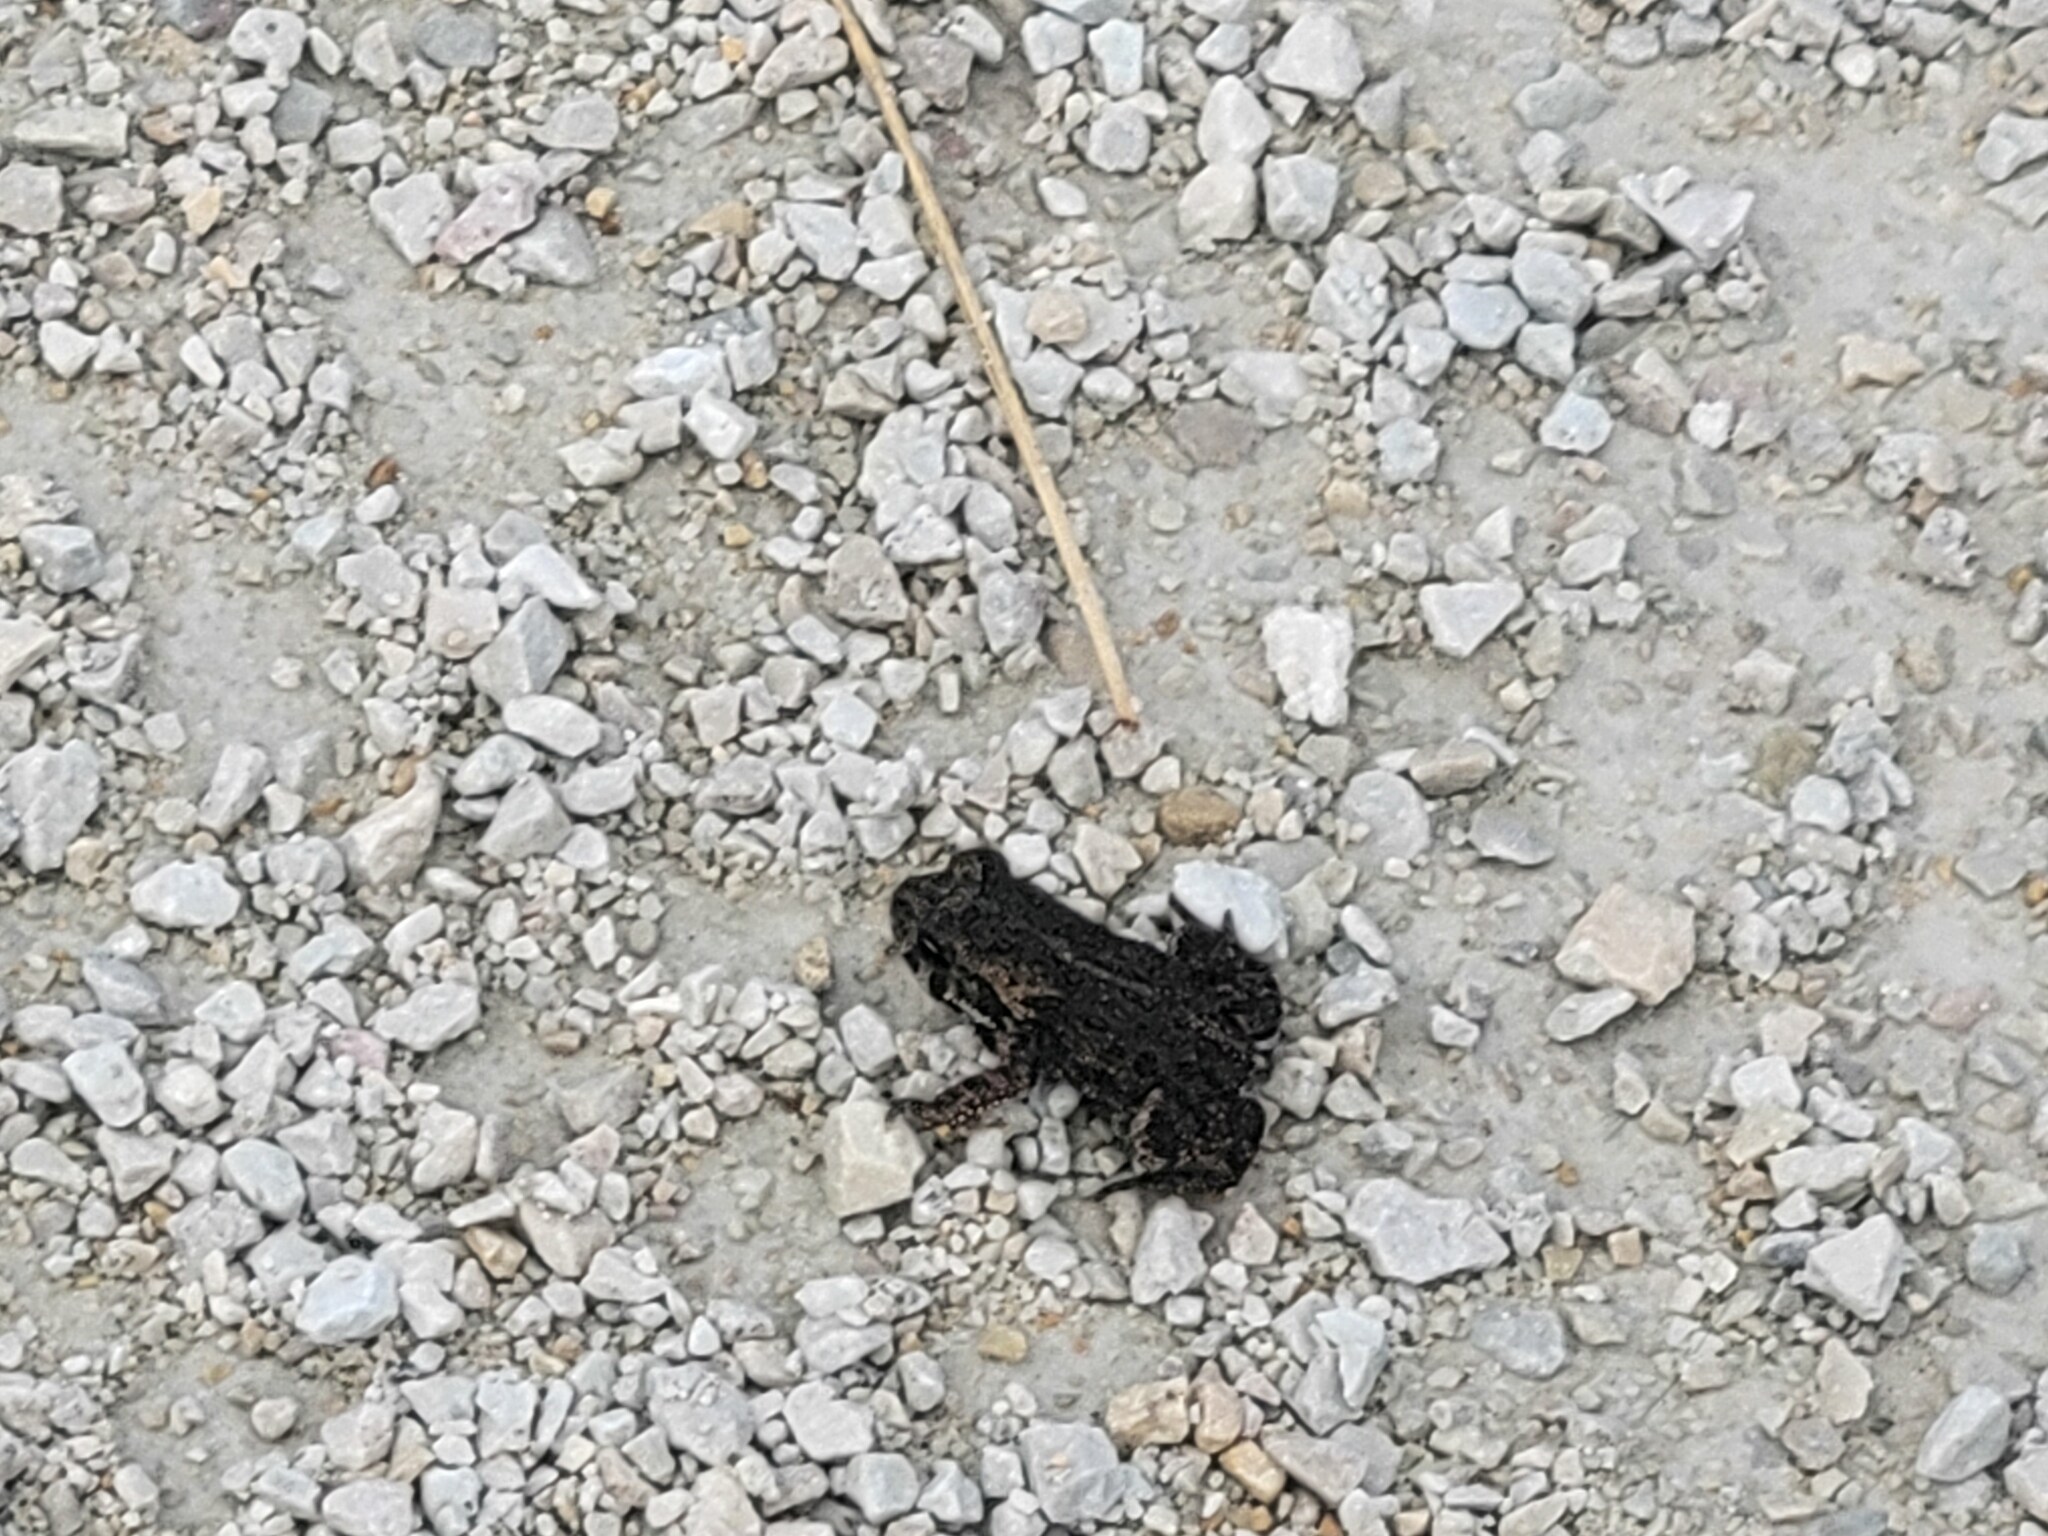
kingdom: Animalia
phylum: Chordata
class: Amphibia
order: Anura
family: Bufonidae
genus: Anaxyrus
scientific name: Anaxyrus americanus
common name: American toad
